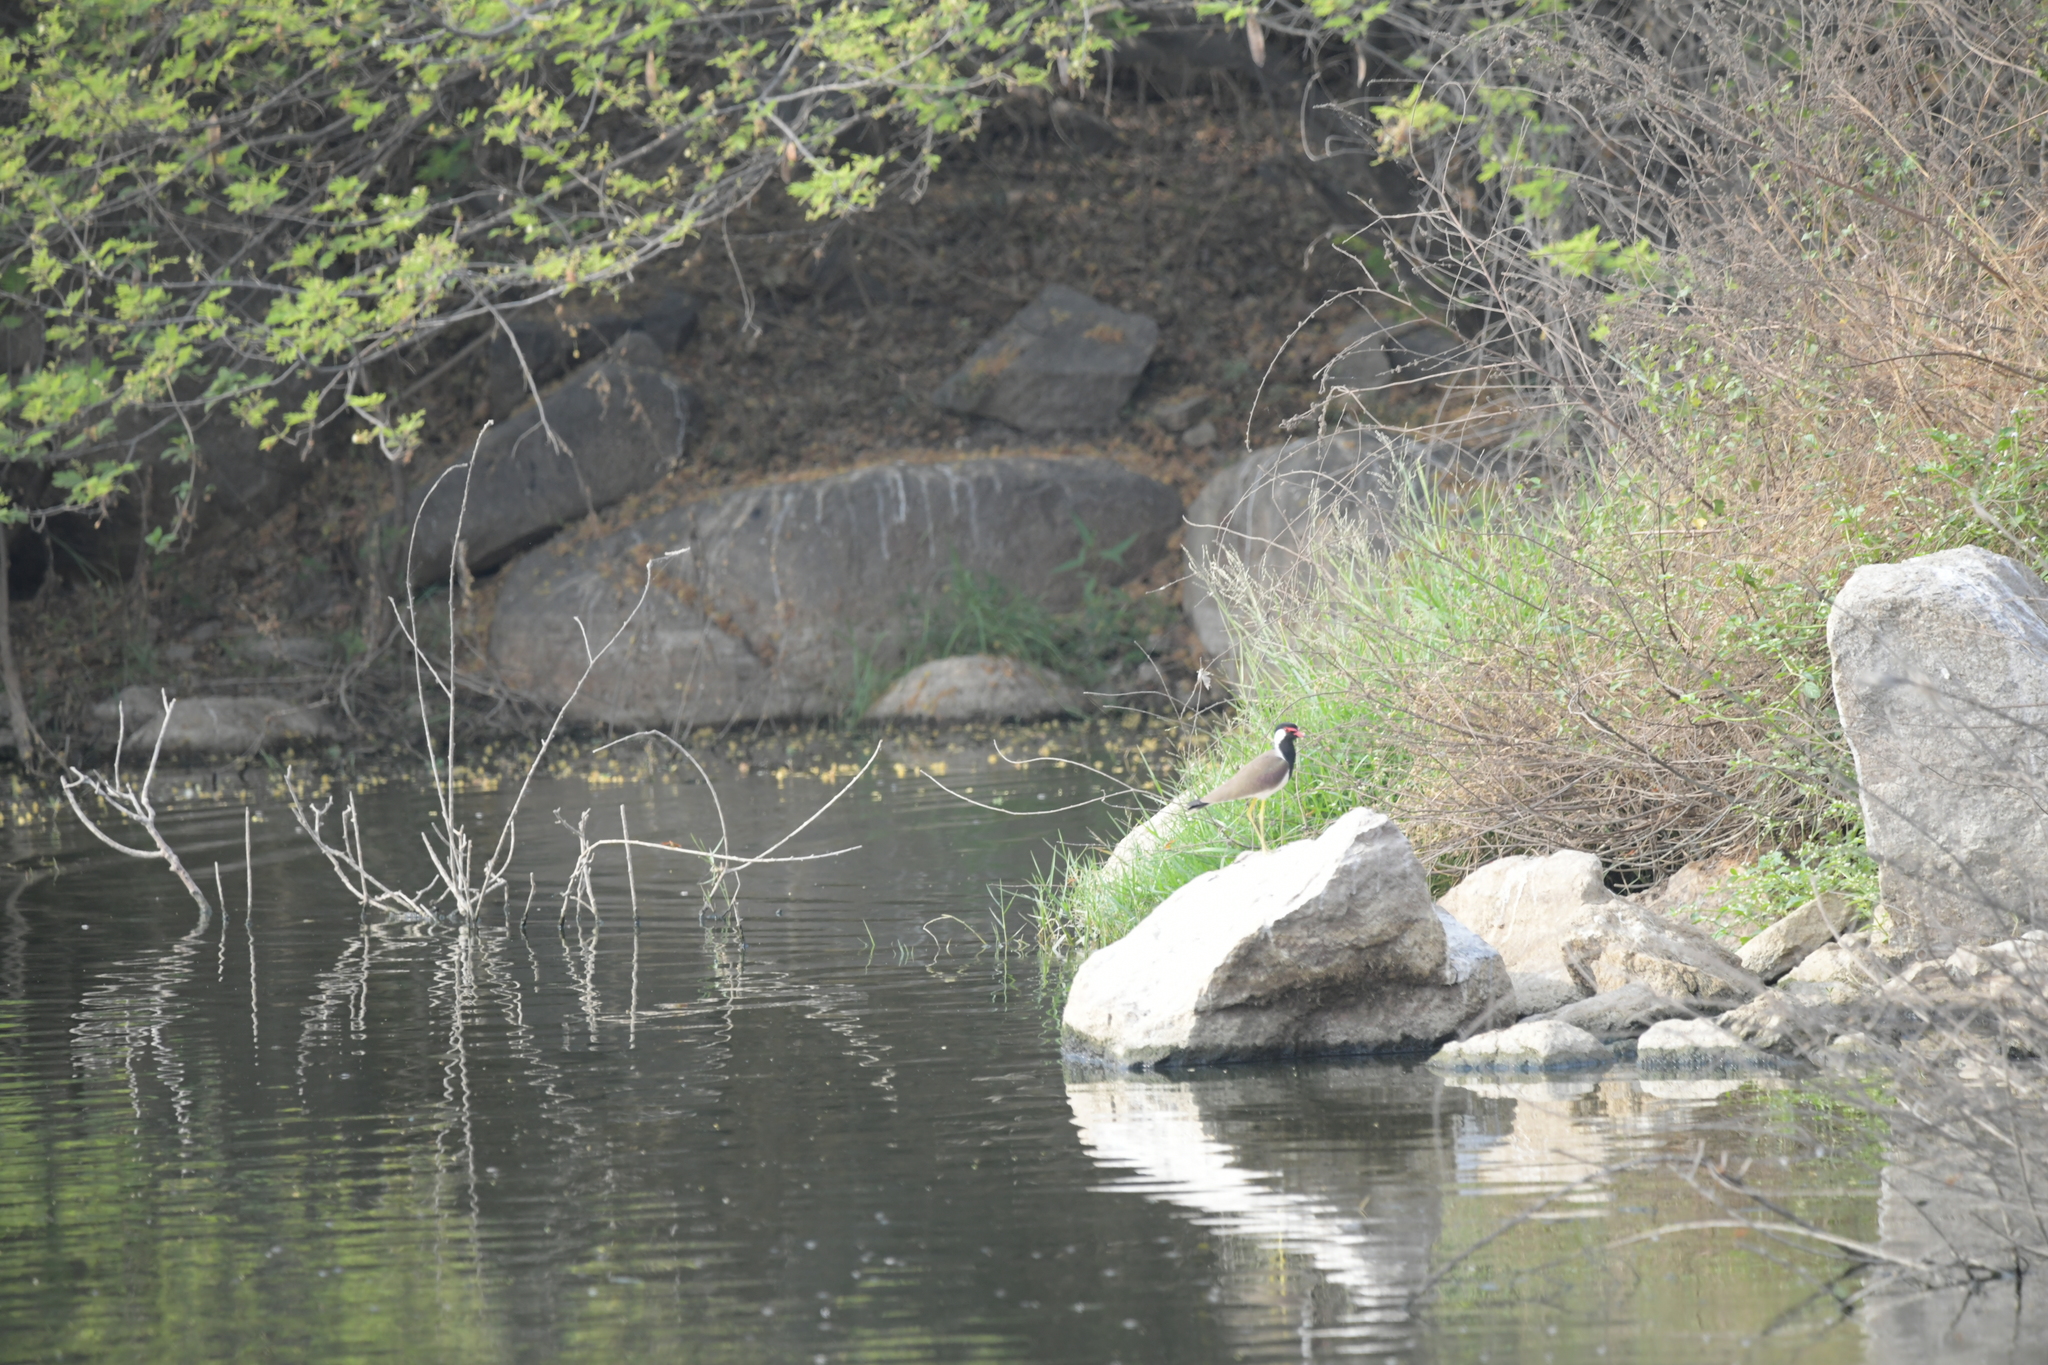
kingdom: Animalia
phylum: Chordata
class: Aves
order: Charadriiformes
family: Charadriidae
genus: Vanellus
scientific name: Vanellus indicus
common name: Red-wattled lapwing
